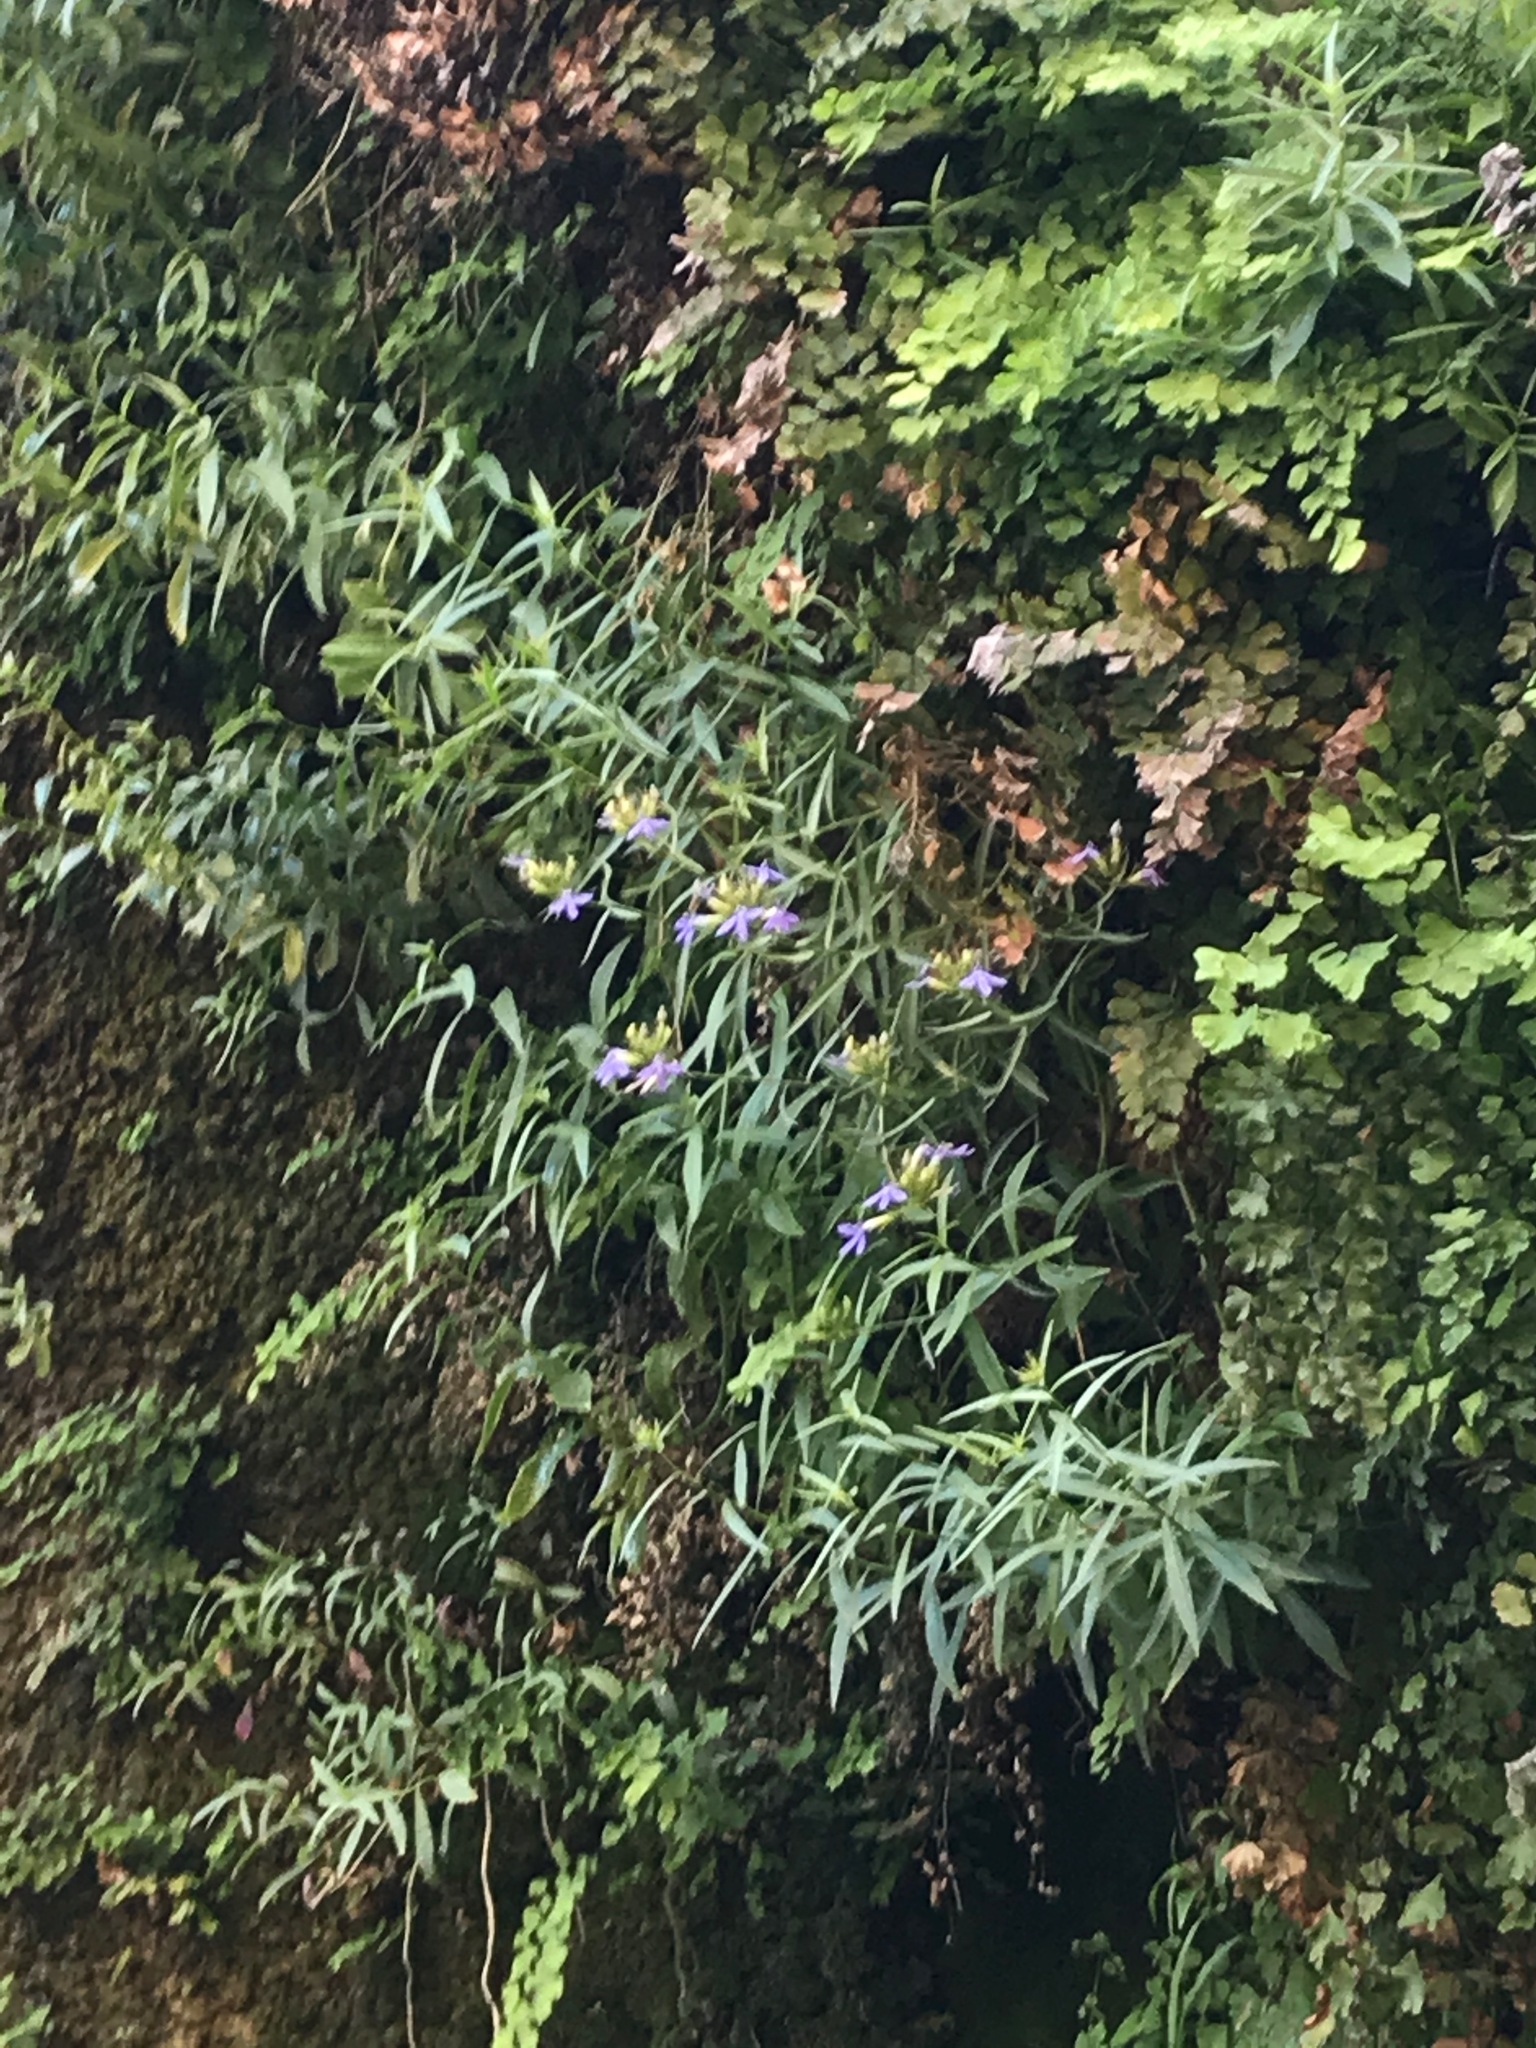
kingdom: Plantae
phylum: Tracheophyta
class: Magnoliopsida
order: Asterales
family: Campanulaceae
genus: Palmerella
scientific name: Palmerella debilis
